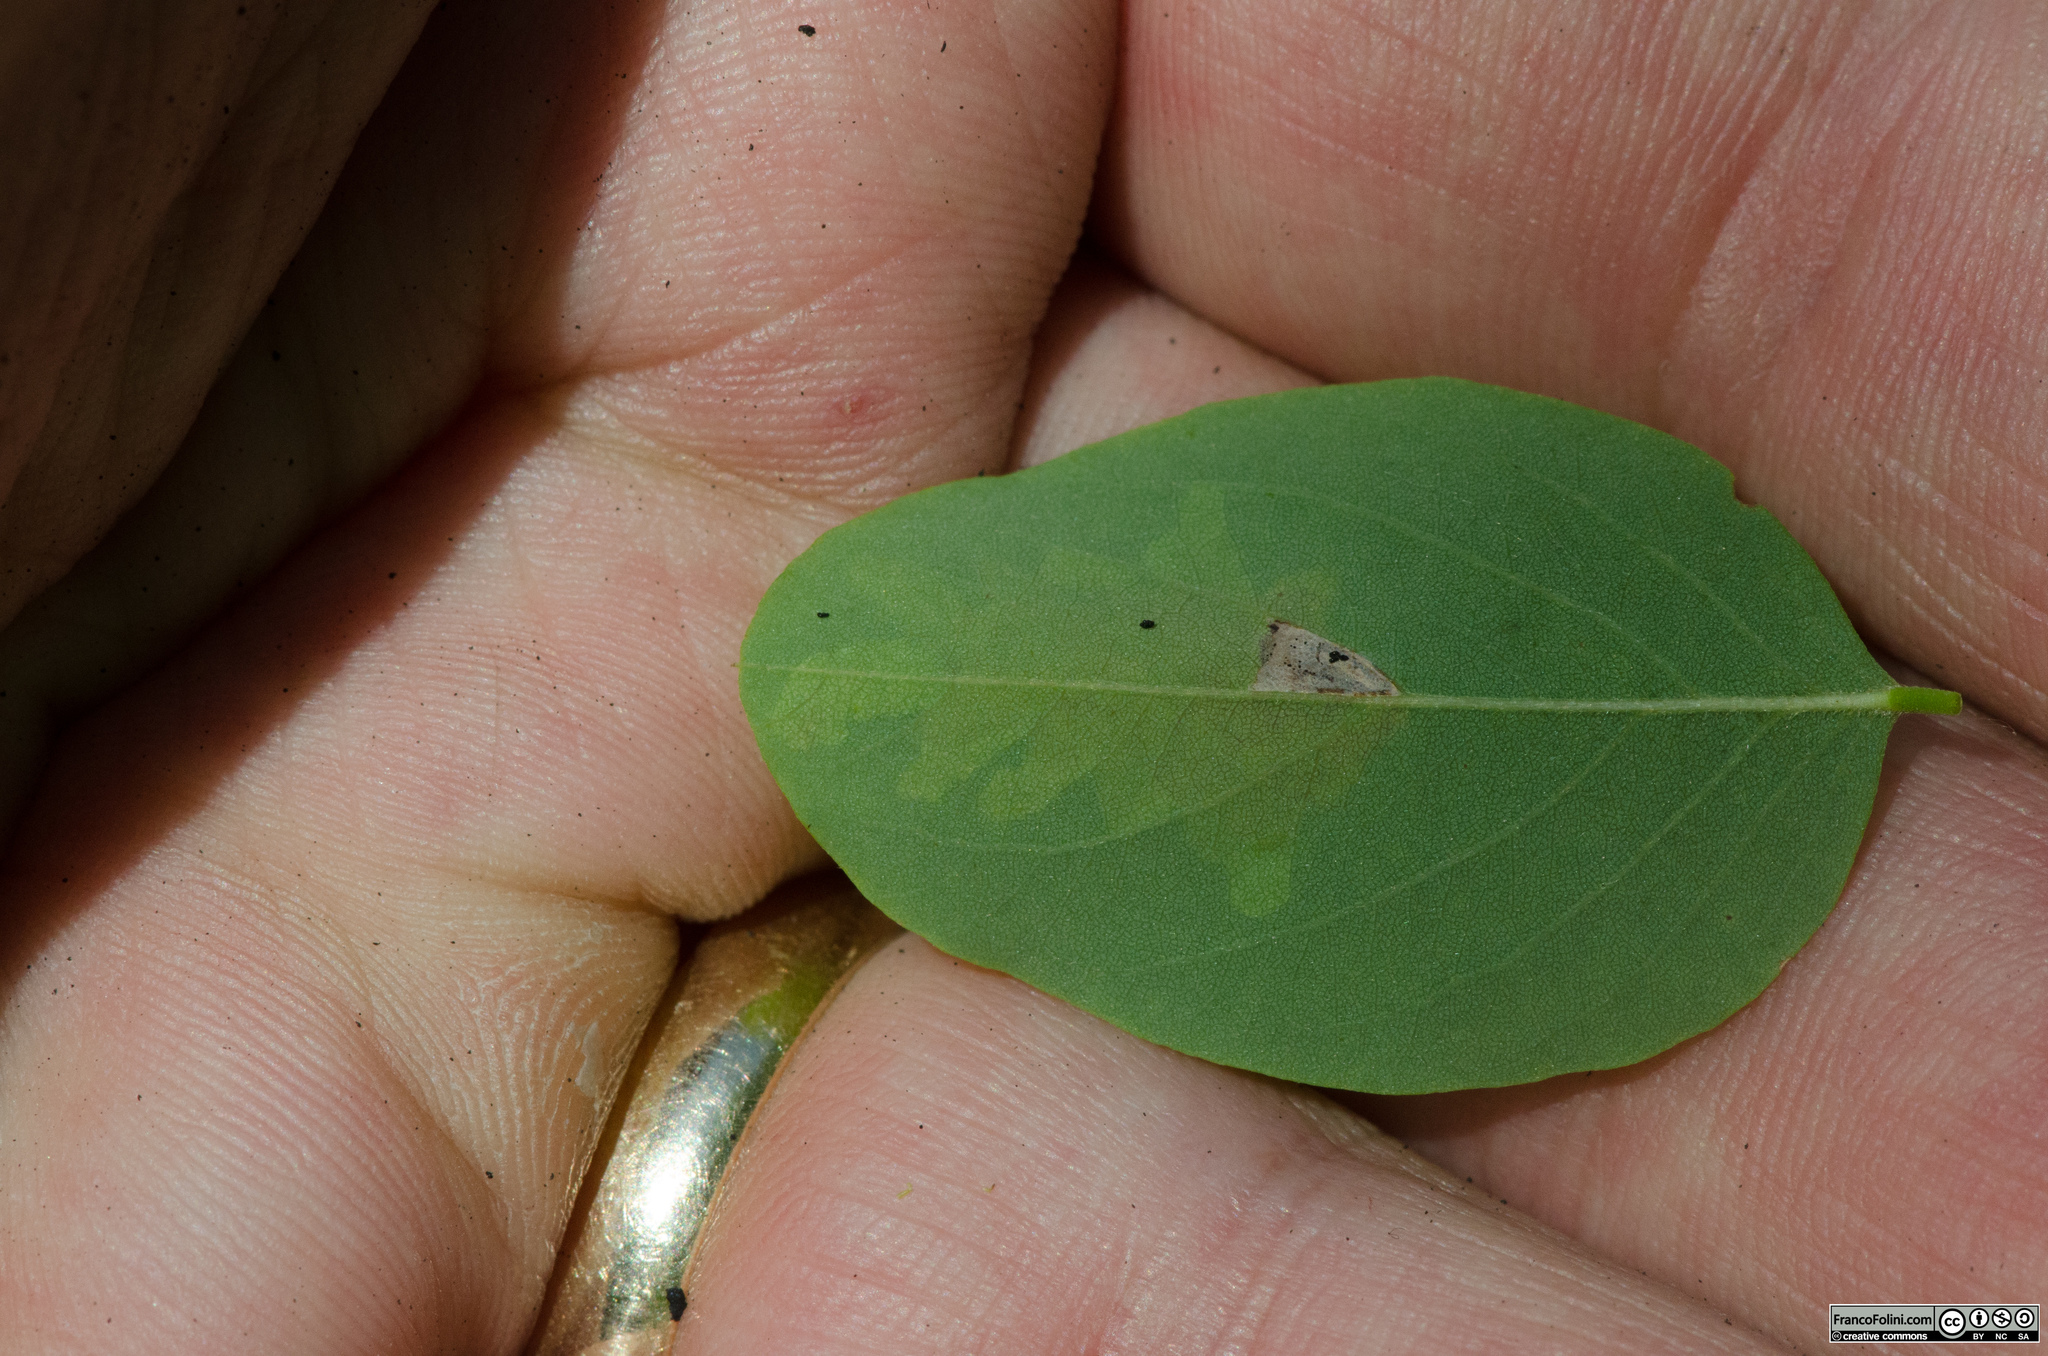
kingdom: Animalia
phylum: Arthropoda
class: Insecta
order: Lepidoptera
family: Gracillariidae
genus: Parectopa
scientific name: Parectopa robiniella
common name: Locust digitate leafminer
